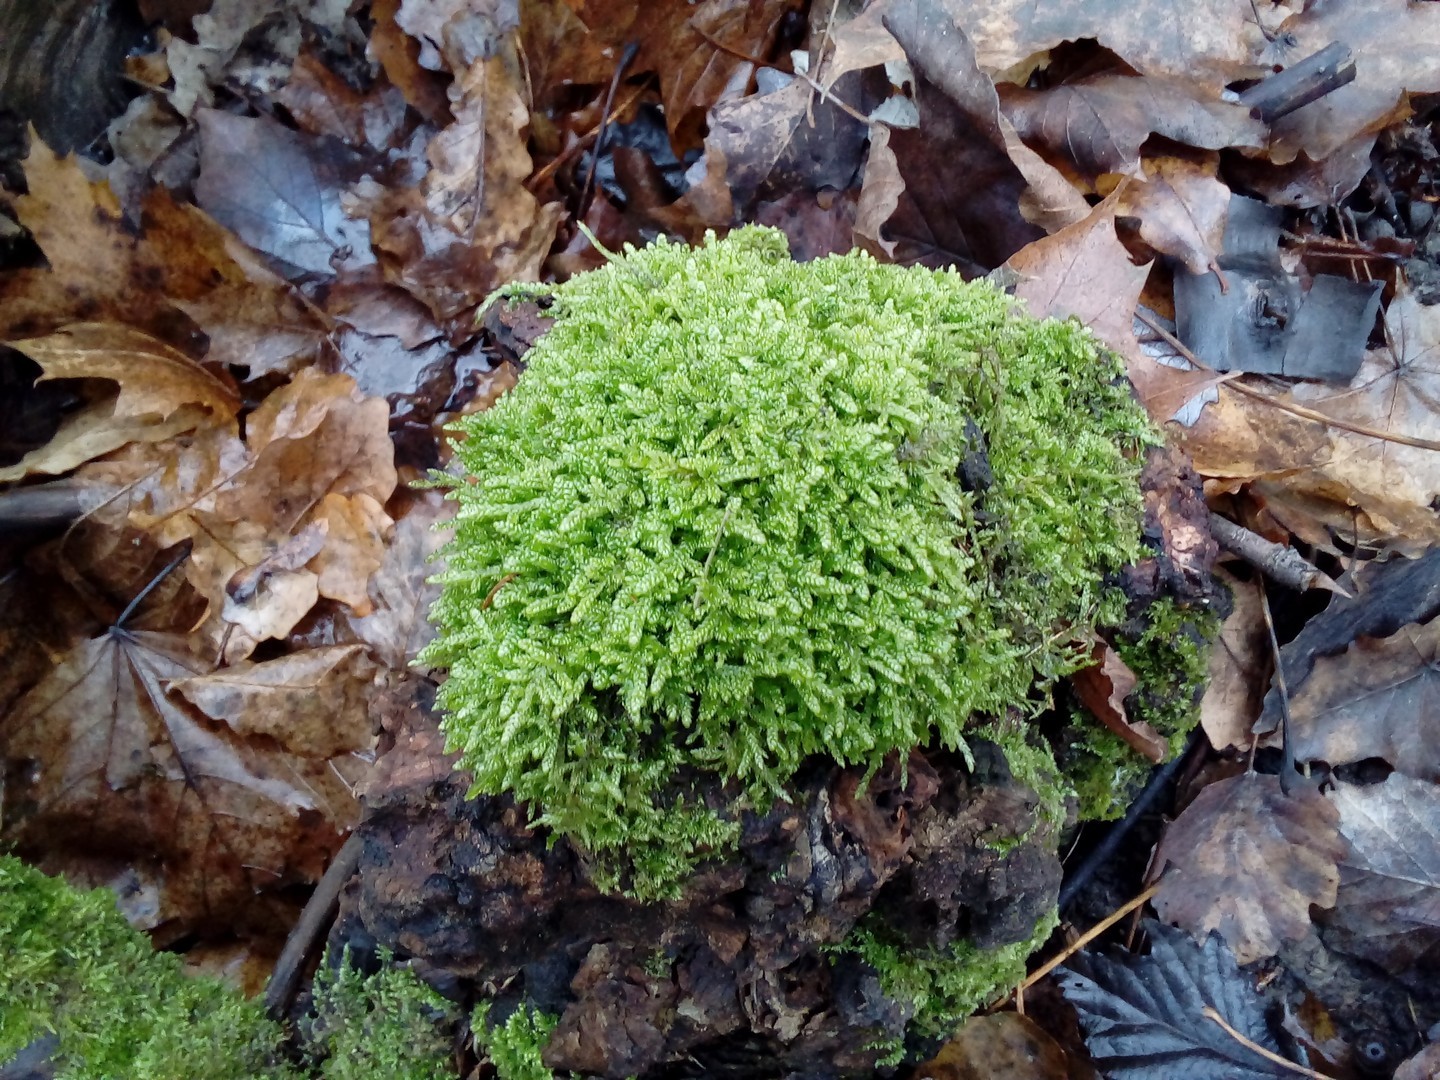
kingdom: Plantae
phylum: Bryophyta
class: Bryopsida
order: Hypnales
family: Hypnaceae
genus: Hypnum
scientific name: Hypnum cupressiforme
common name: Cypress-leaved plait-moss
